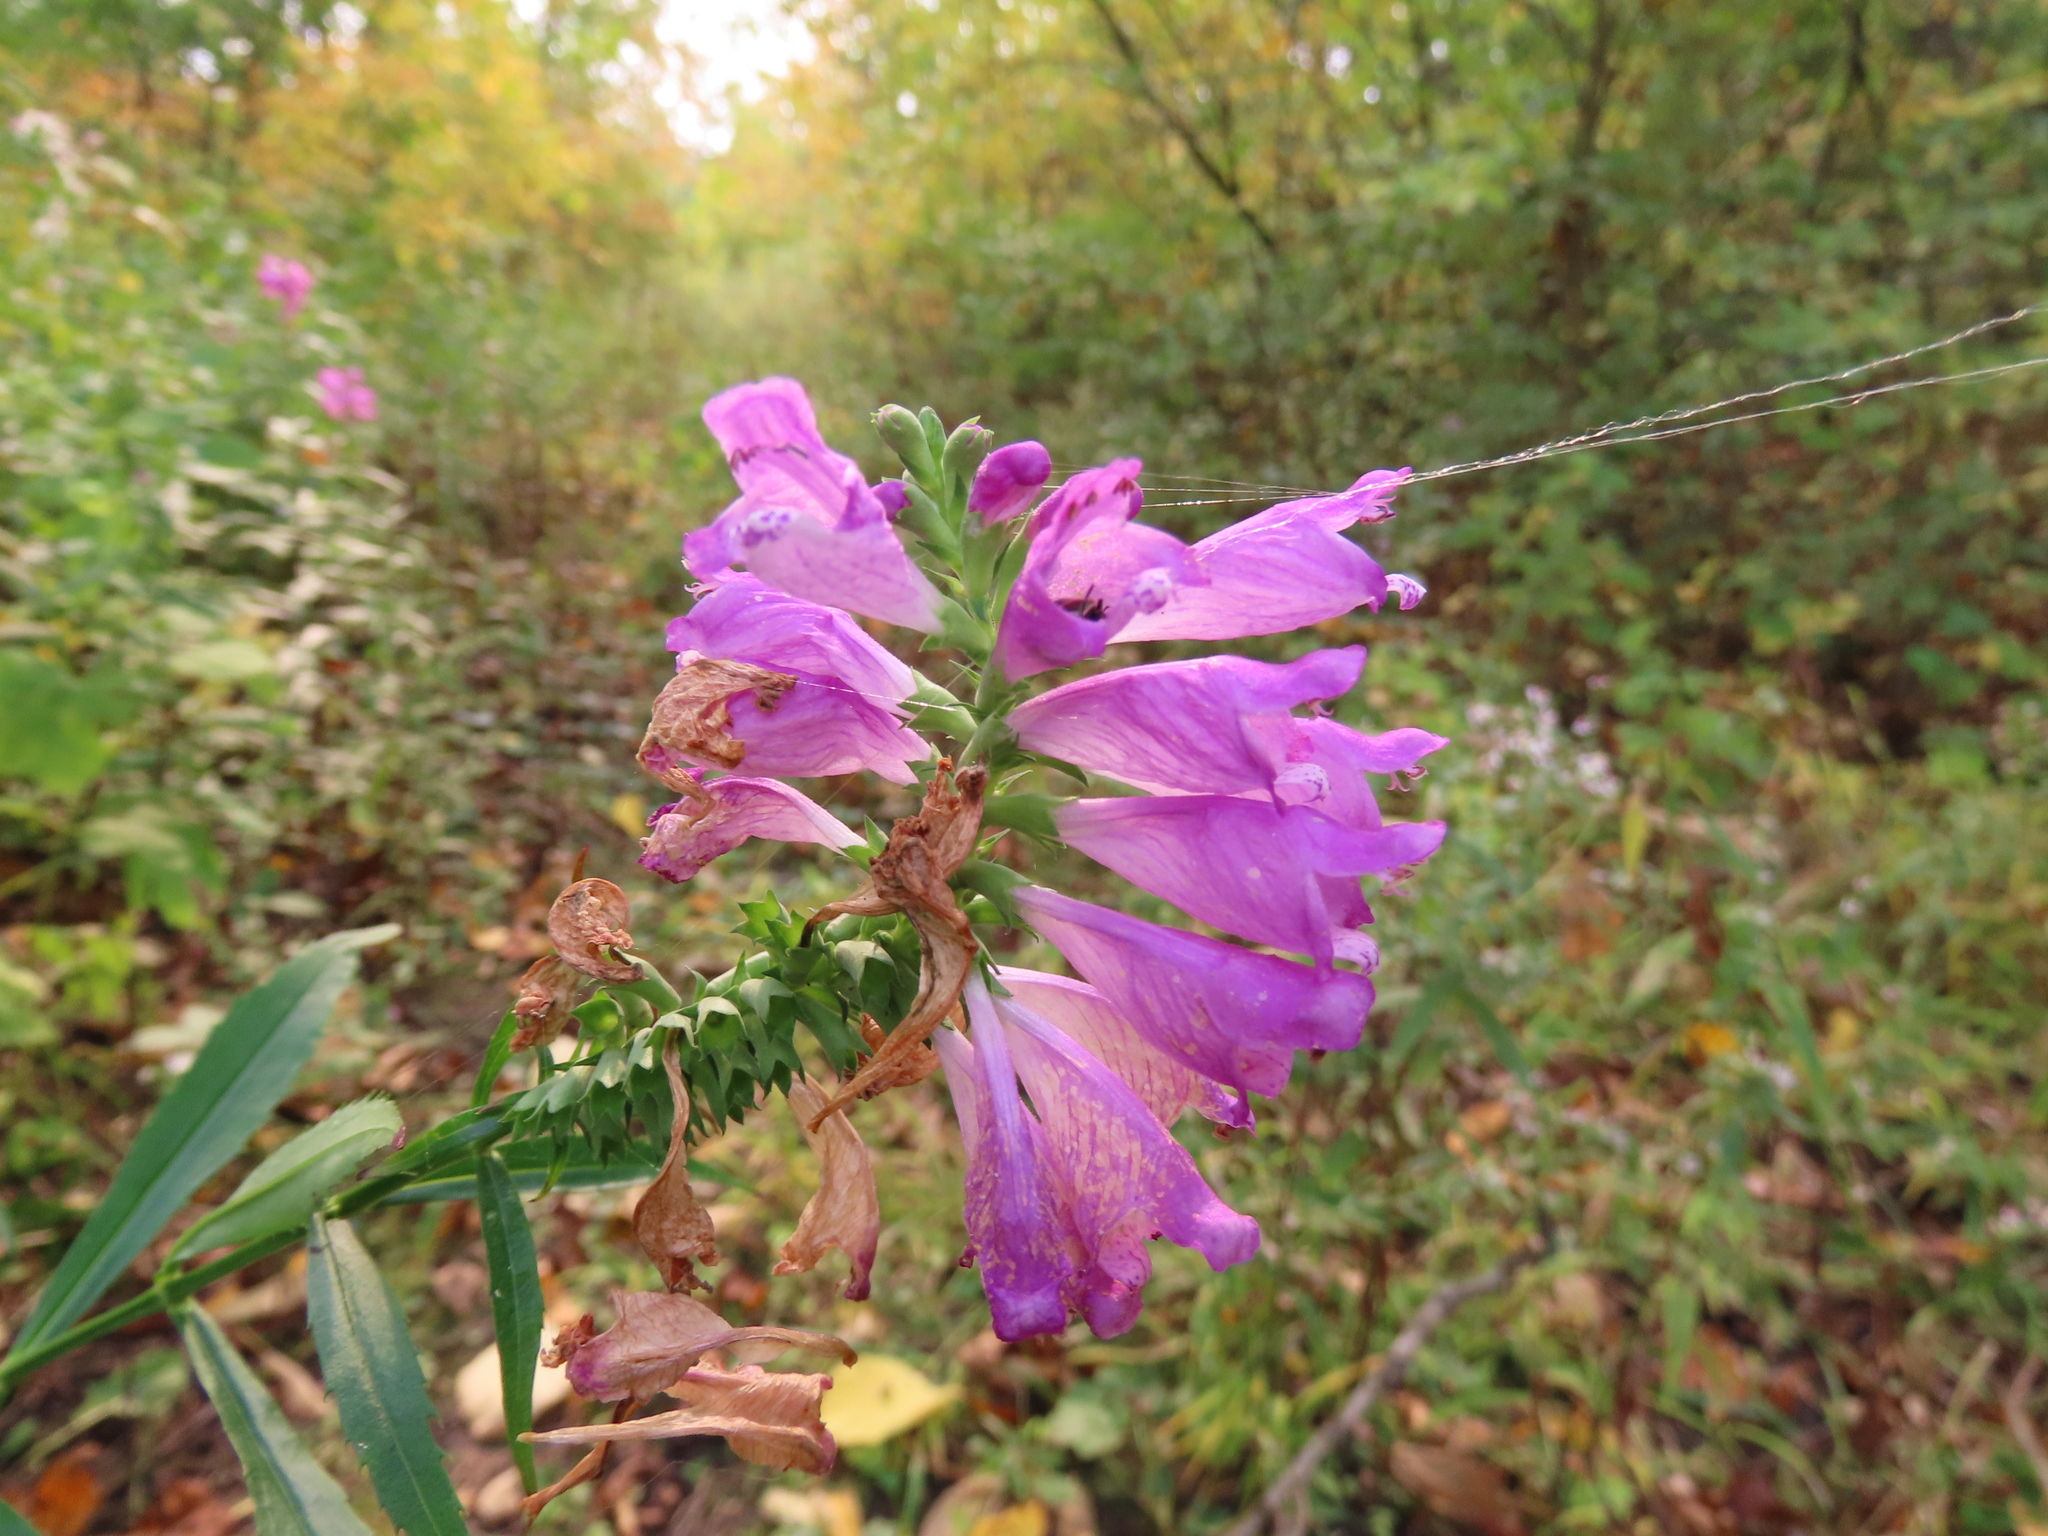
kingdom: Plantae
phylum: Tracheophyta
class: Magnoliopsida
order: Lamiales
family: Lamiaceae
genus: Physostegia
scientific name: Physostegia virginiana
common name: Obedient-plant
